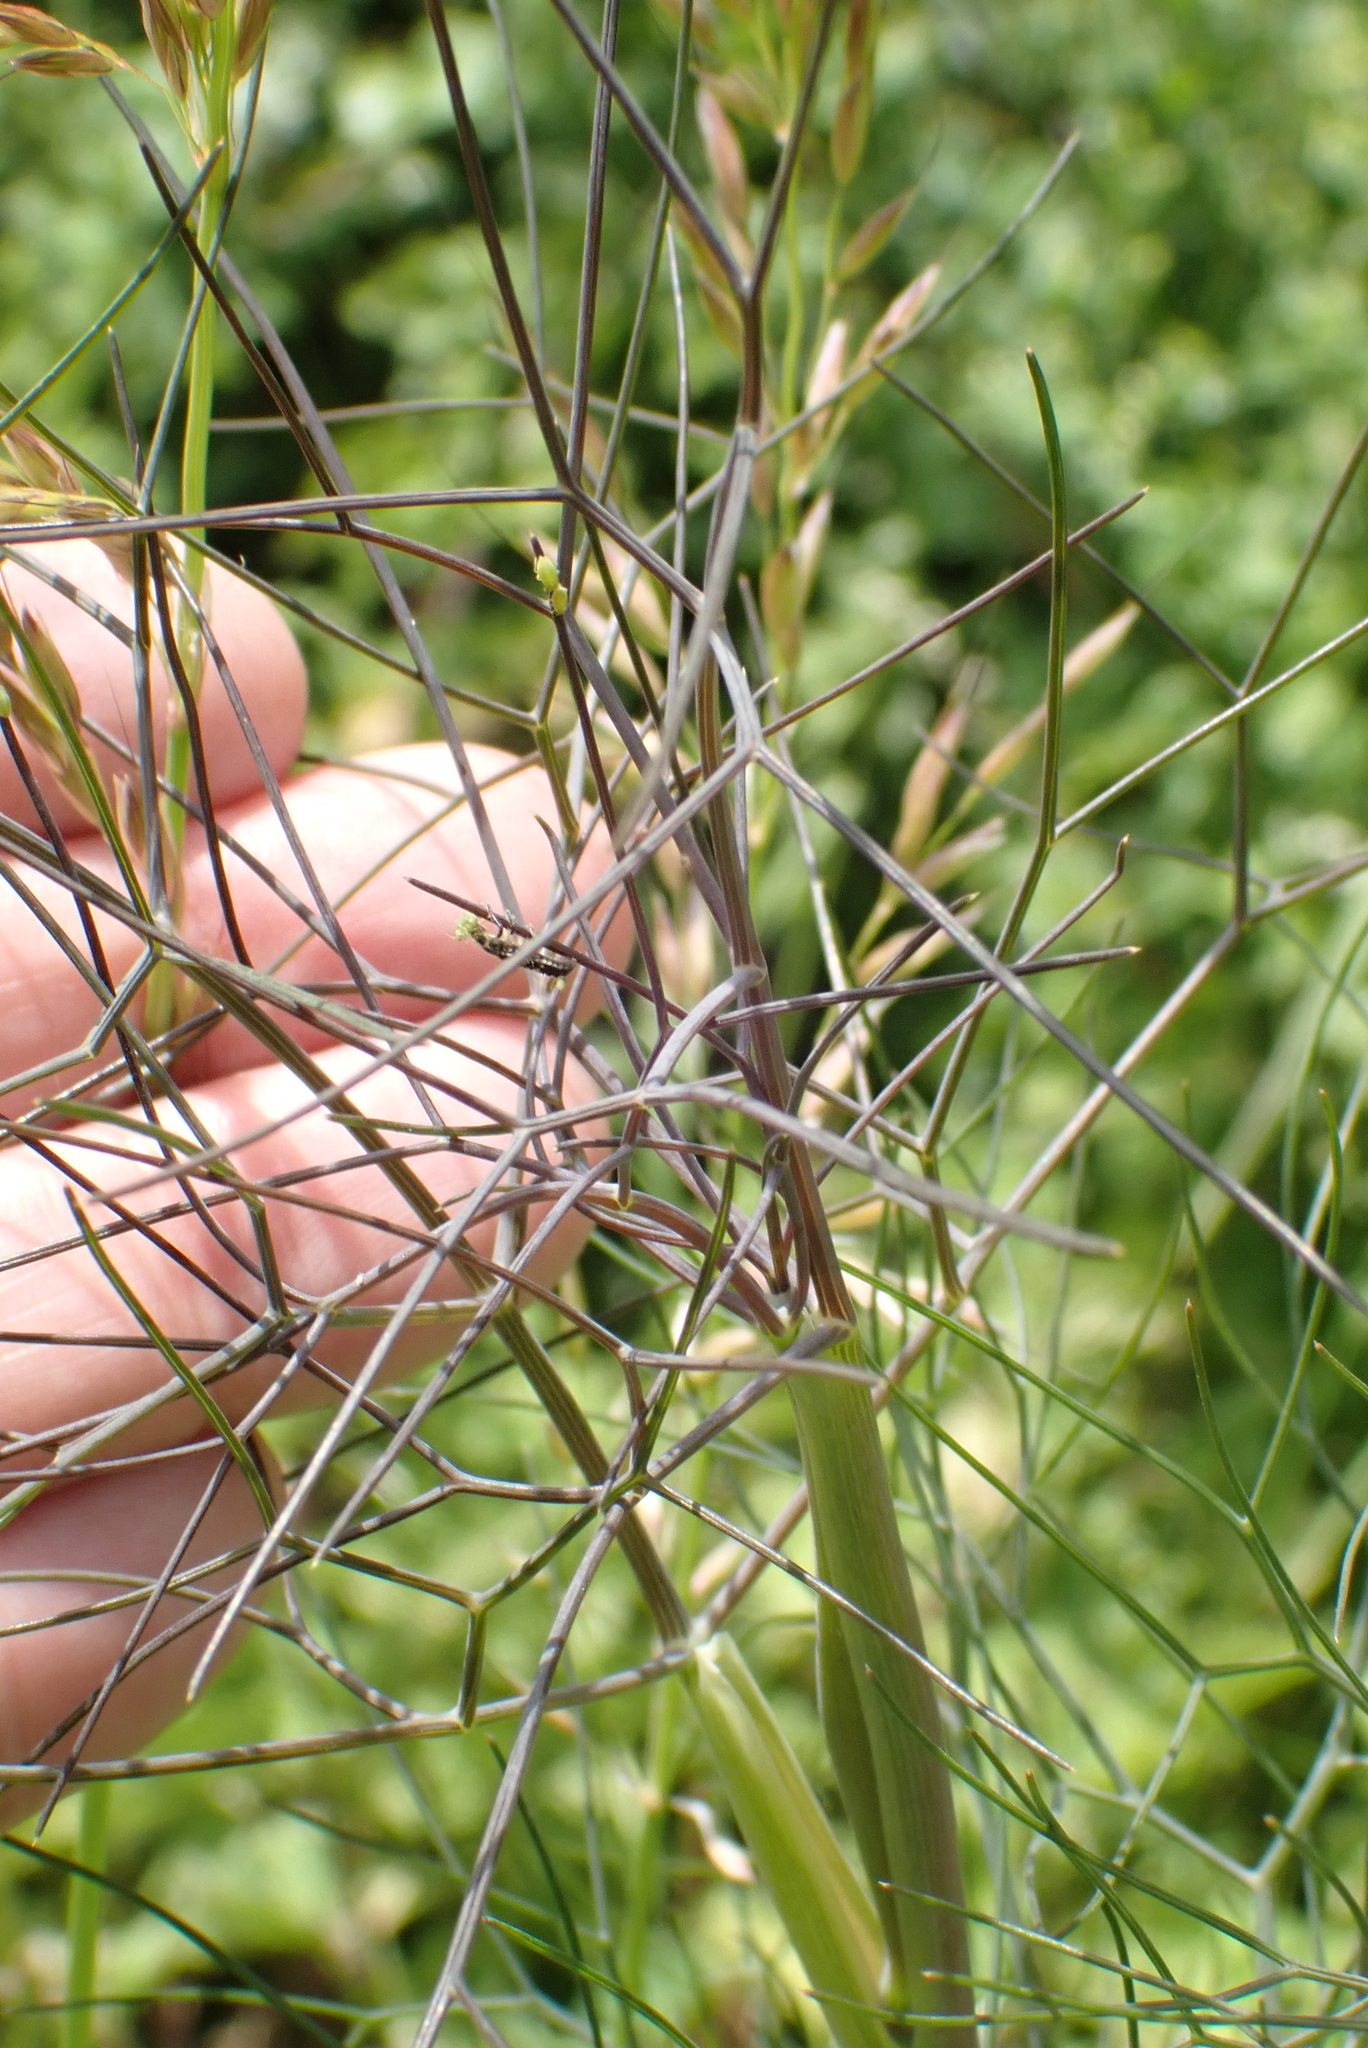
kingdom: Plantae
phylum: Tracheophyta
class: Magnoliopsida
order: Apiales
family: Apiaceae
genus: Foeniculum
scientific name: Foeniculum vulgare
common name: Fennel
